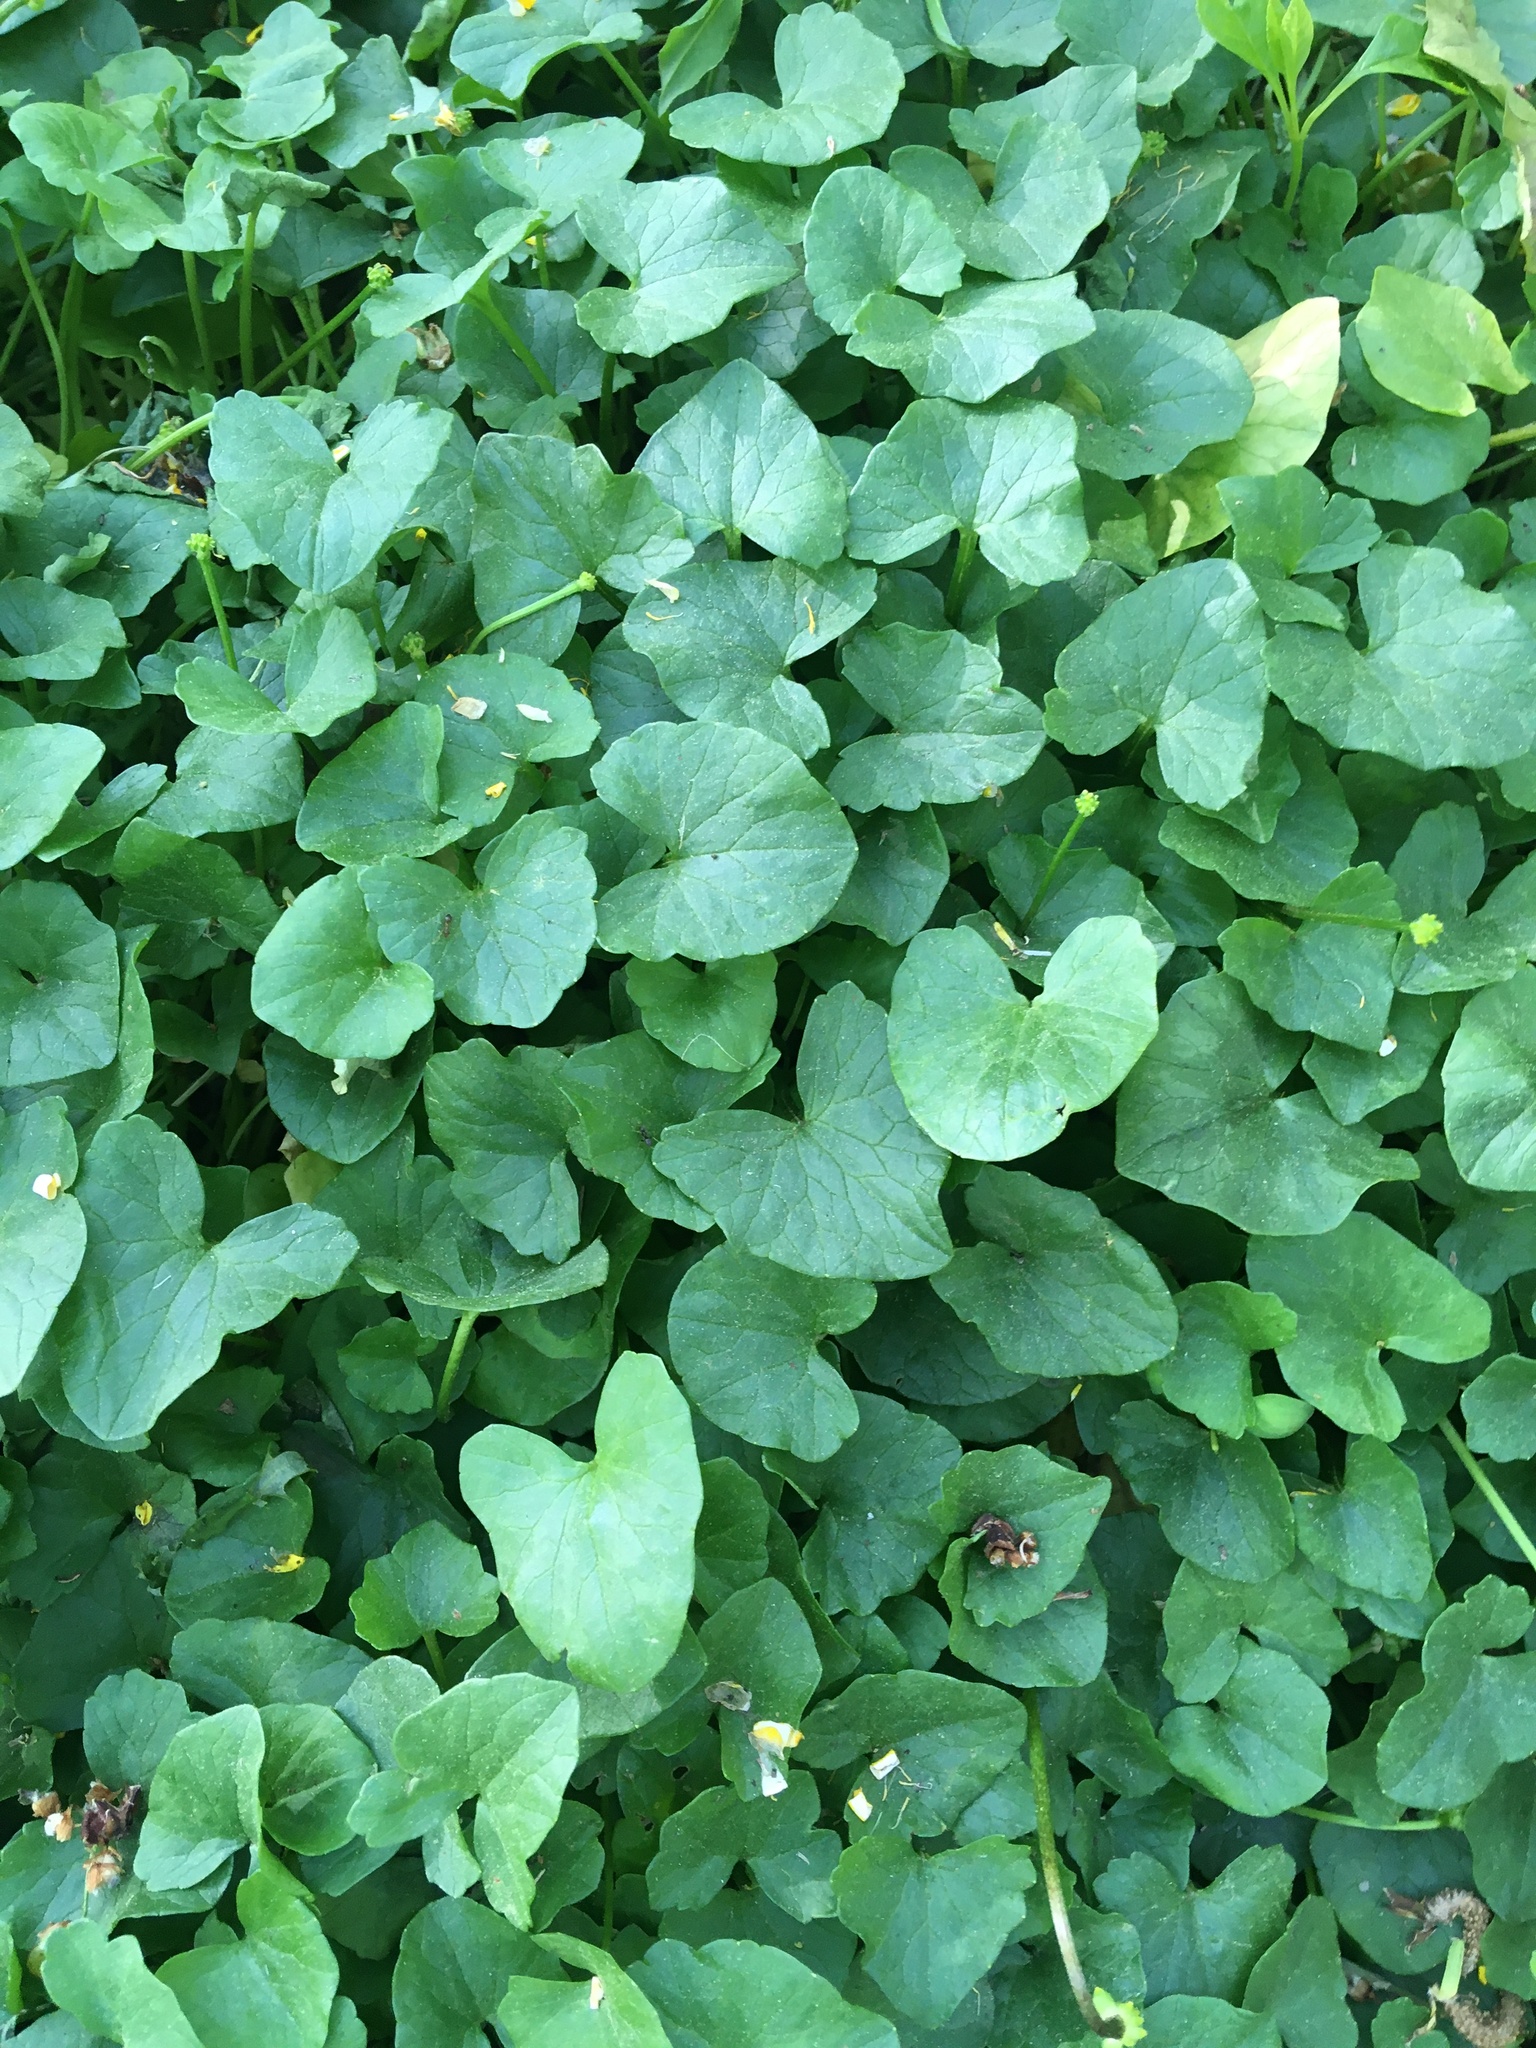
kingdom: Plantae
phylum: Tracheophyta
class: Magnoliopsida
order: Ranunculales
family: Ranunculaceae
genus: Ficaria
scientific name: Ficaria verna
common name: Lesser celandine
